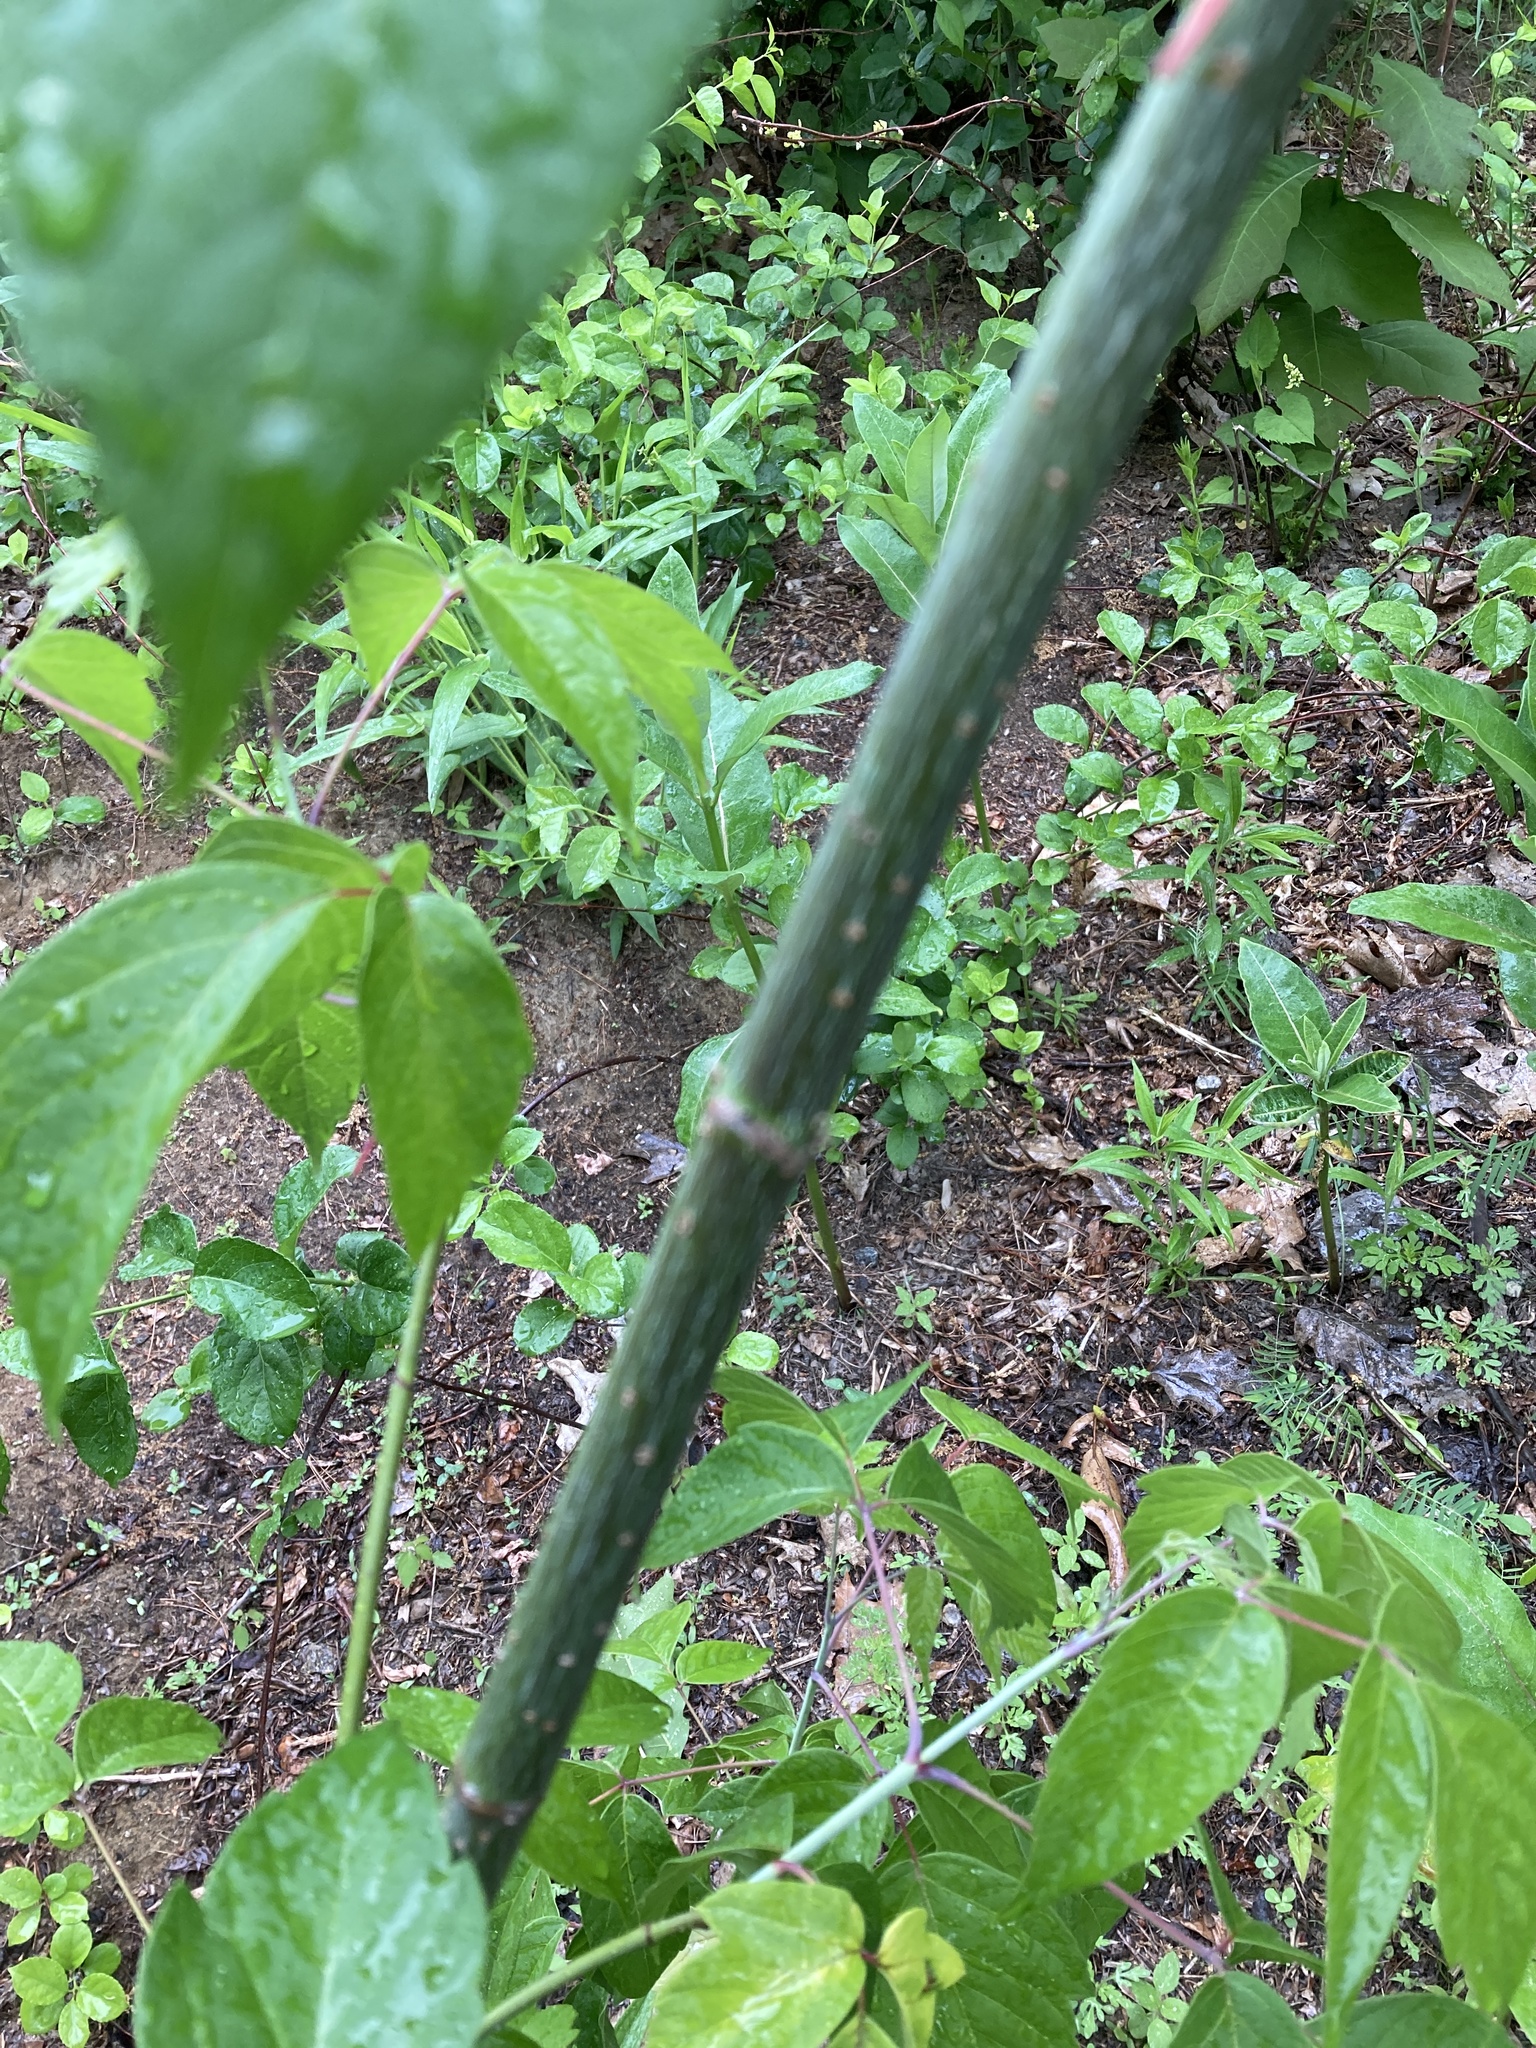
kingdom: Plantae
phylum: Tracheophyta
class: Magnoliopsida
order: Sapindales
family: Sapindaceae
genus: Acer
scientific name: Acer negundo
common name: Ashleaf maple
